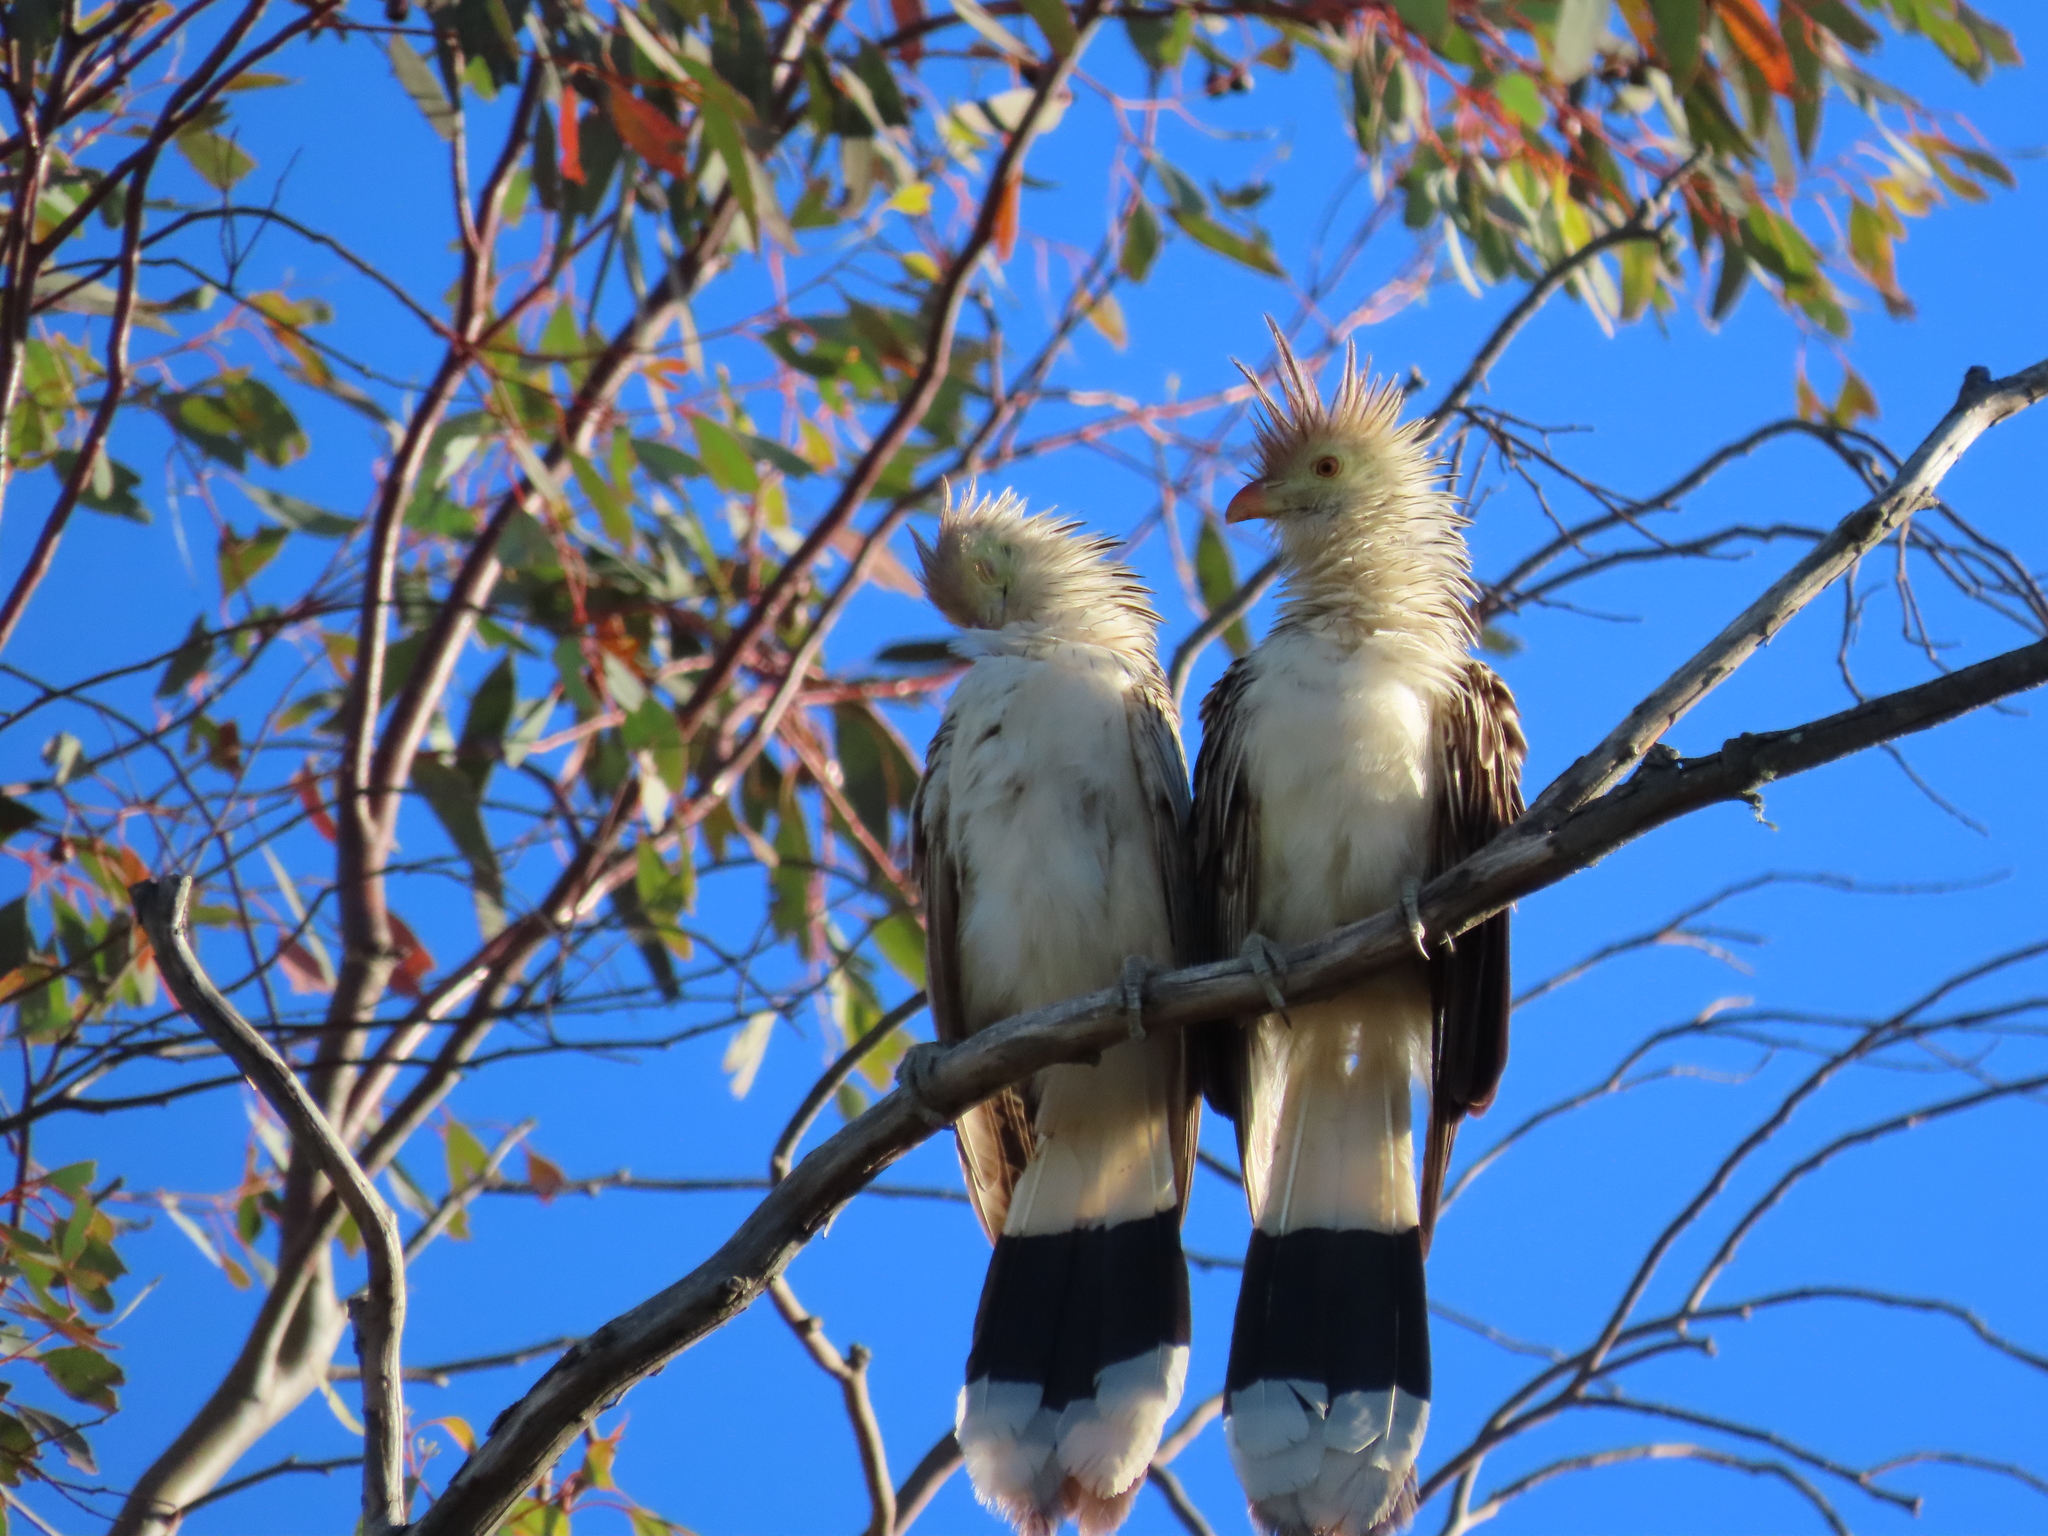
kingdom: Animalia
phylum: Chordata
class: Aves
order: Cuculiformes
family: Cuculidae
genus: Guira
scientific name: Guira guira
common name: Guira cuckoo
